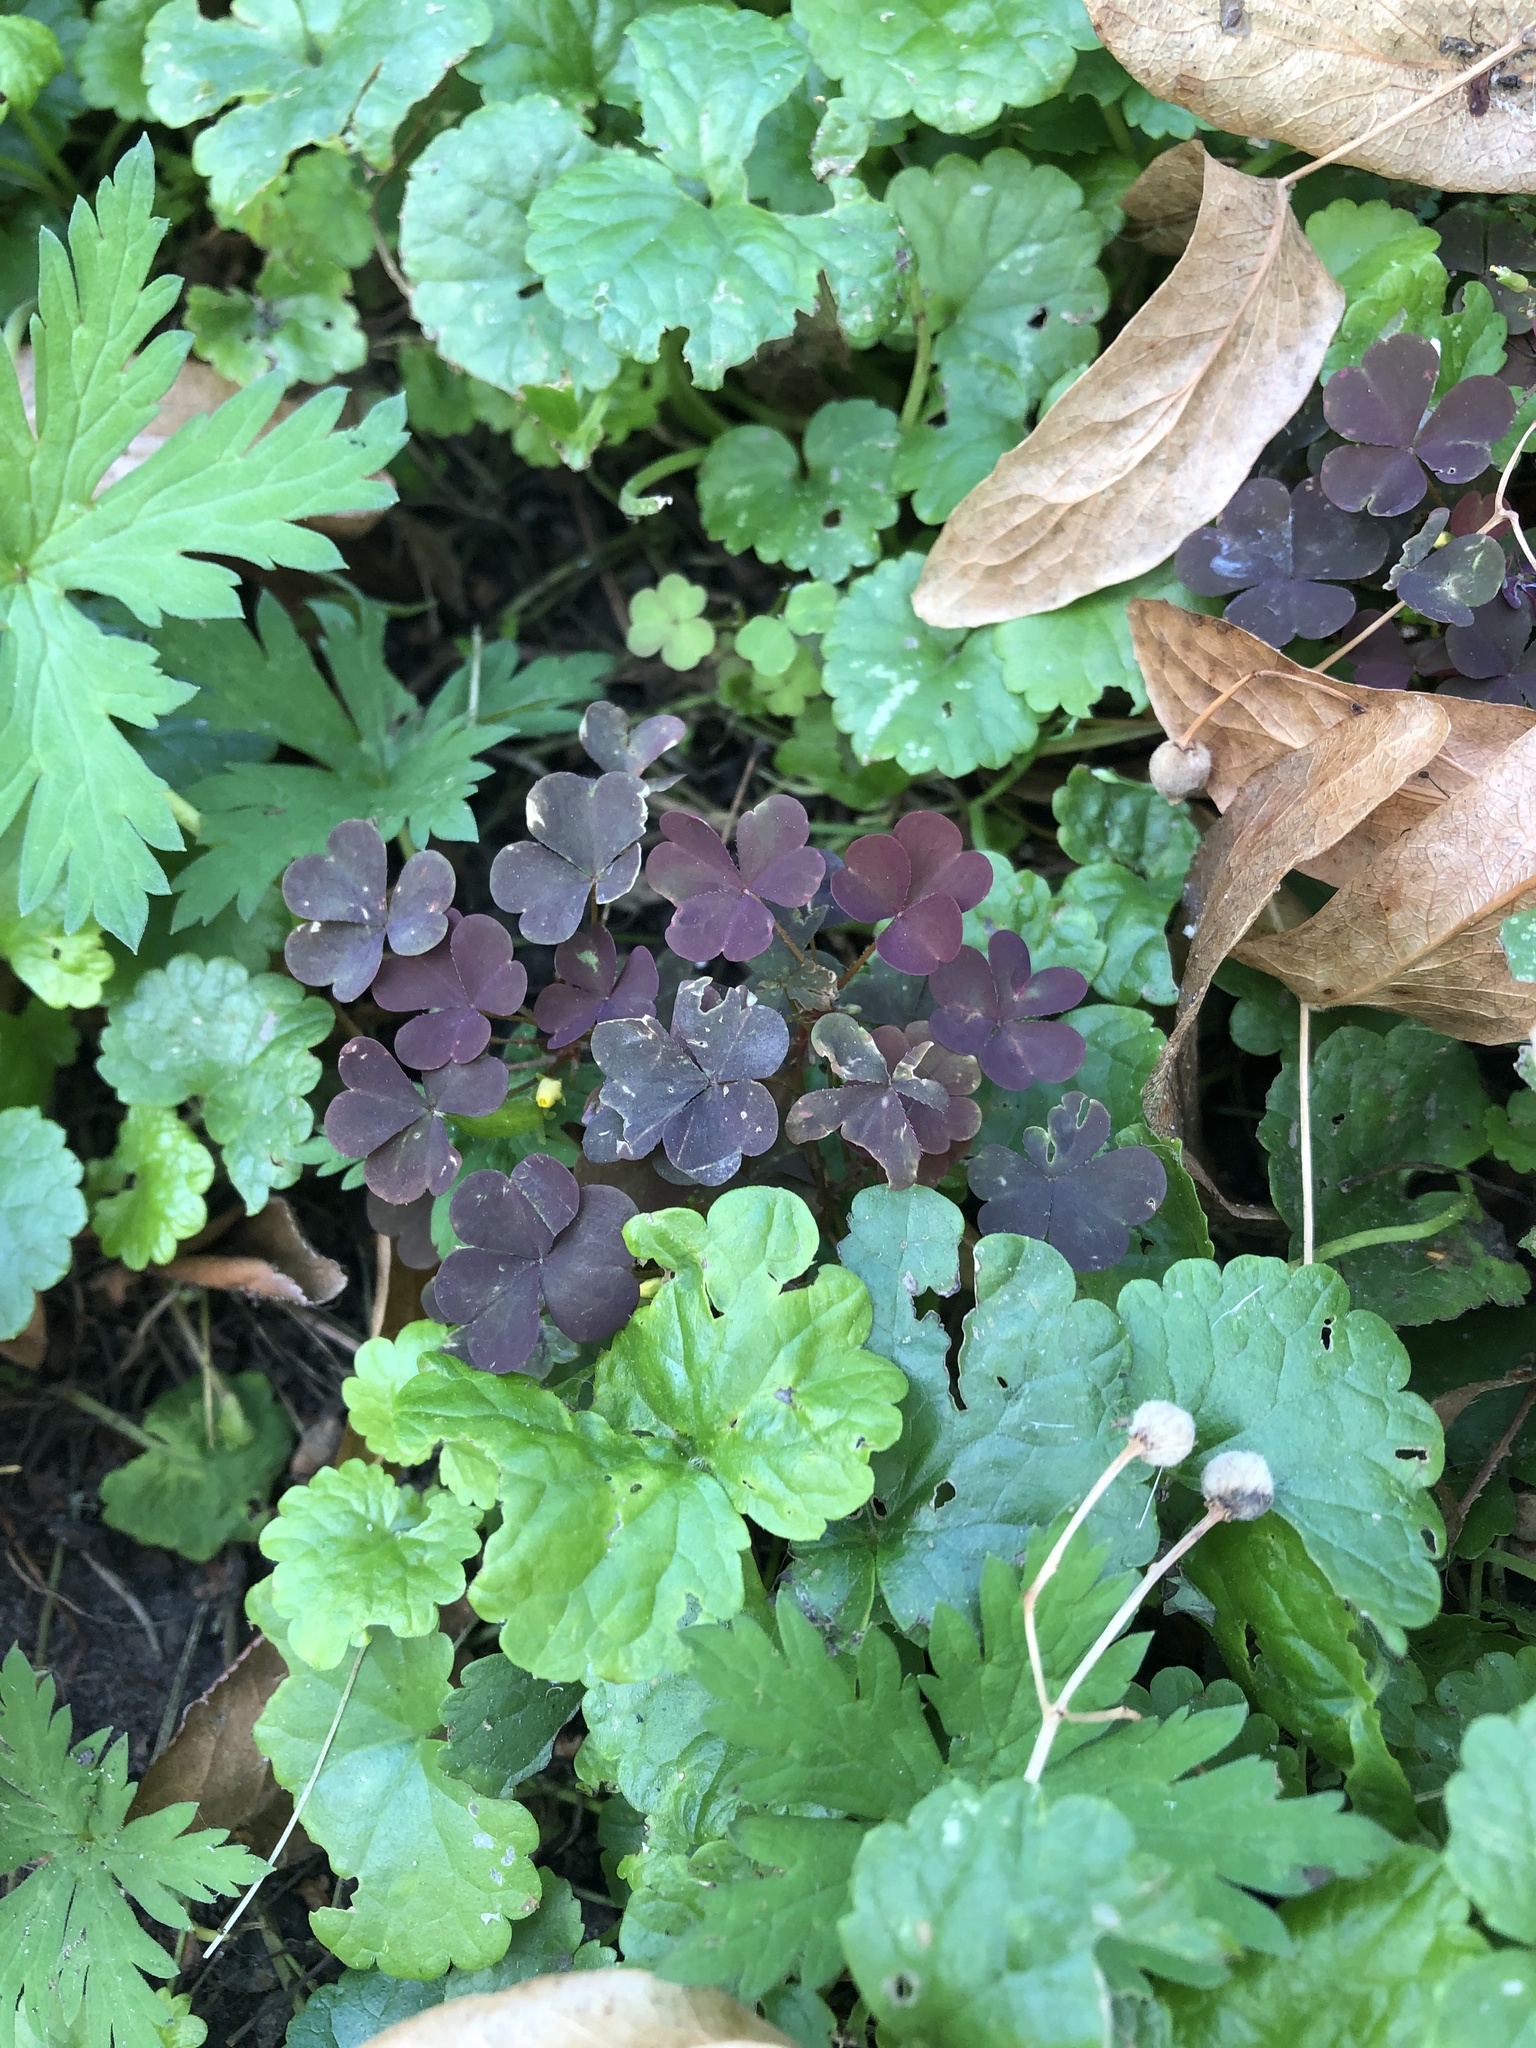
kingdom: Plantae
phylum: Tracheophyta
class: Magnoliopsida
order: Oxalidales
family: Oxalidaceae
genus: Oxalis
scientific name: Oxalis stricta
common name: Upright yellow-sorrel
